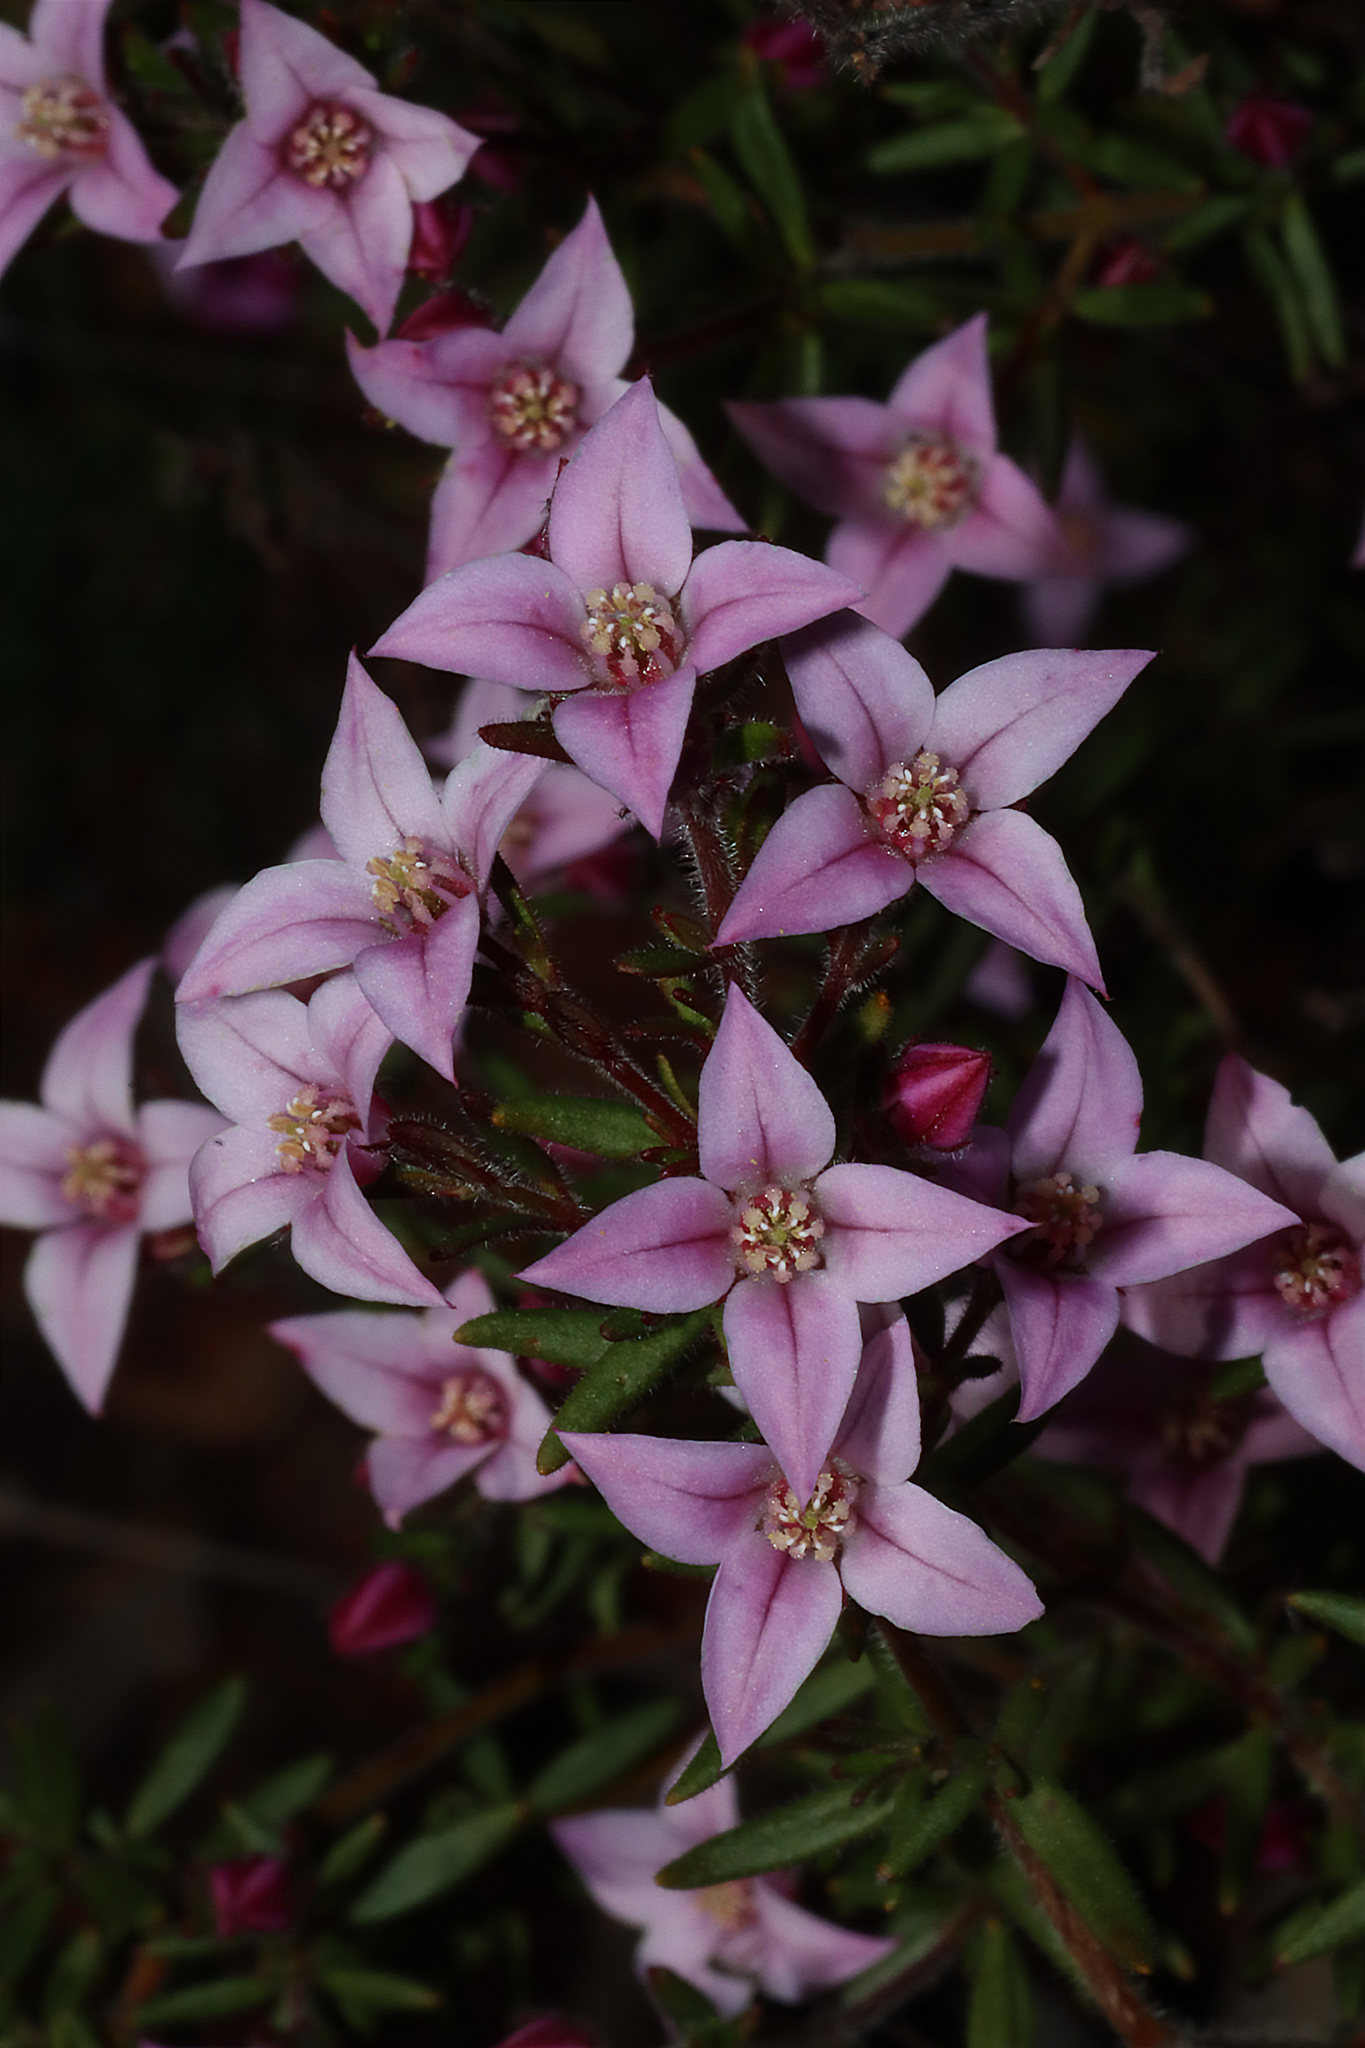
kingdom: Plantae
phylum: Tracheophyta
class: Magnoliopsida
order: Sapindales
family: Rutaceae
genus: Boronia
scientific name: Boronia scabra
